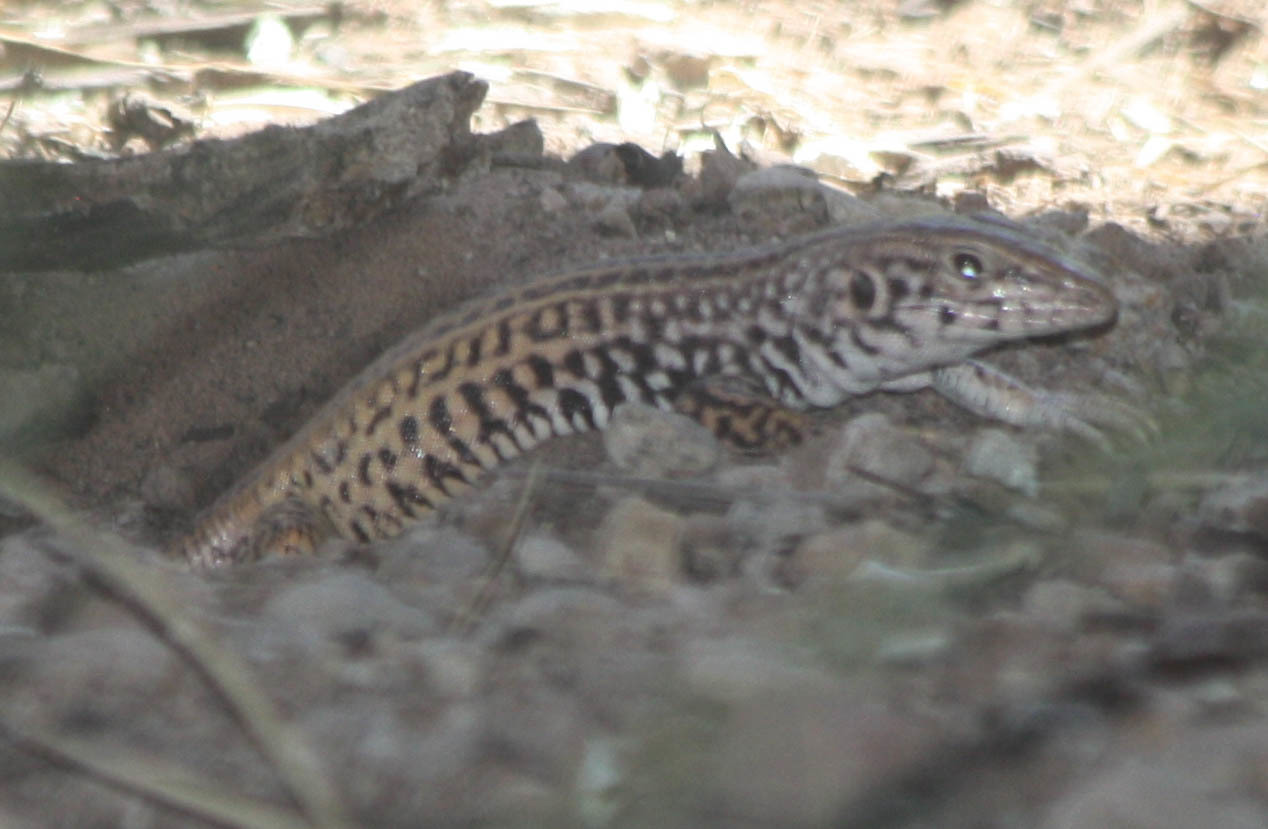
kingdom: Animalia
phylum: Chordata
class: Squamata
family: Teiidae
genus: Aspidoscelis
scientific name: Aspidoscelis tigris
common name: Tiger whiptail
